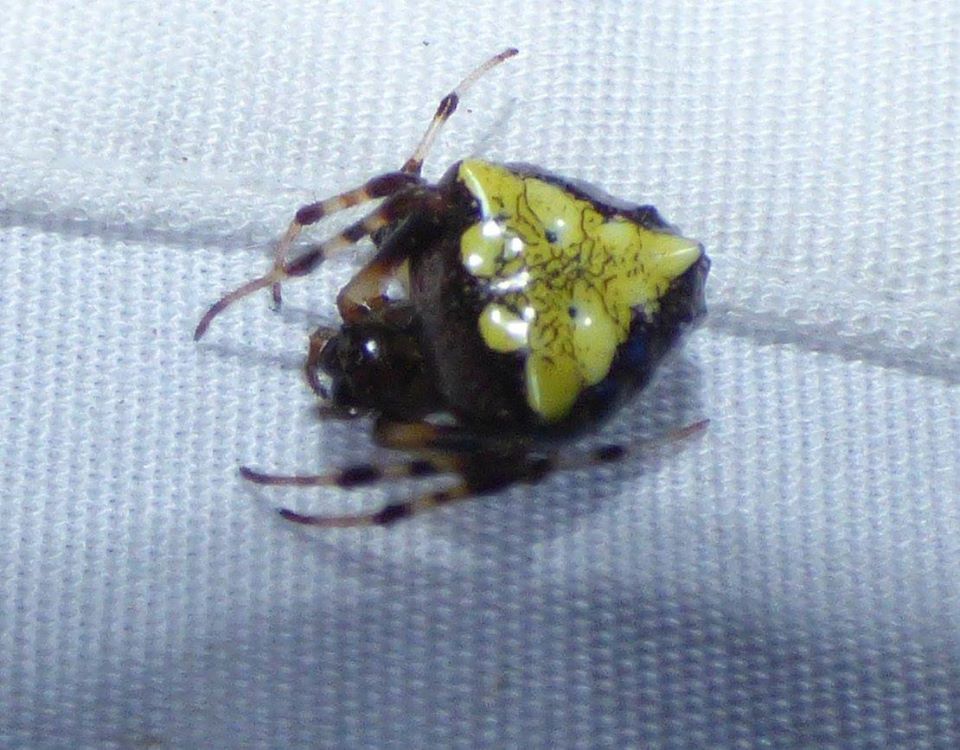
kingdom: Animalia
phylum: Arthropoda
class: Arachnida
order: Araneae
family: Araneidae
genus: Verrucosa
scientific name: Verrucosa arenata
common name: Orb weavers
